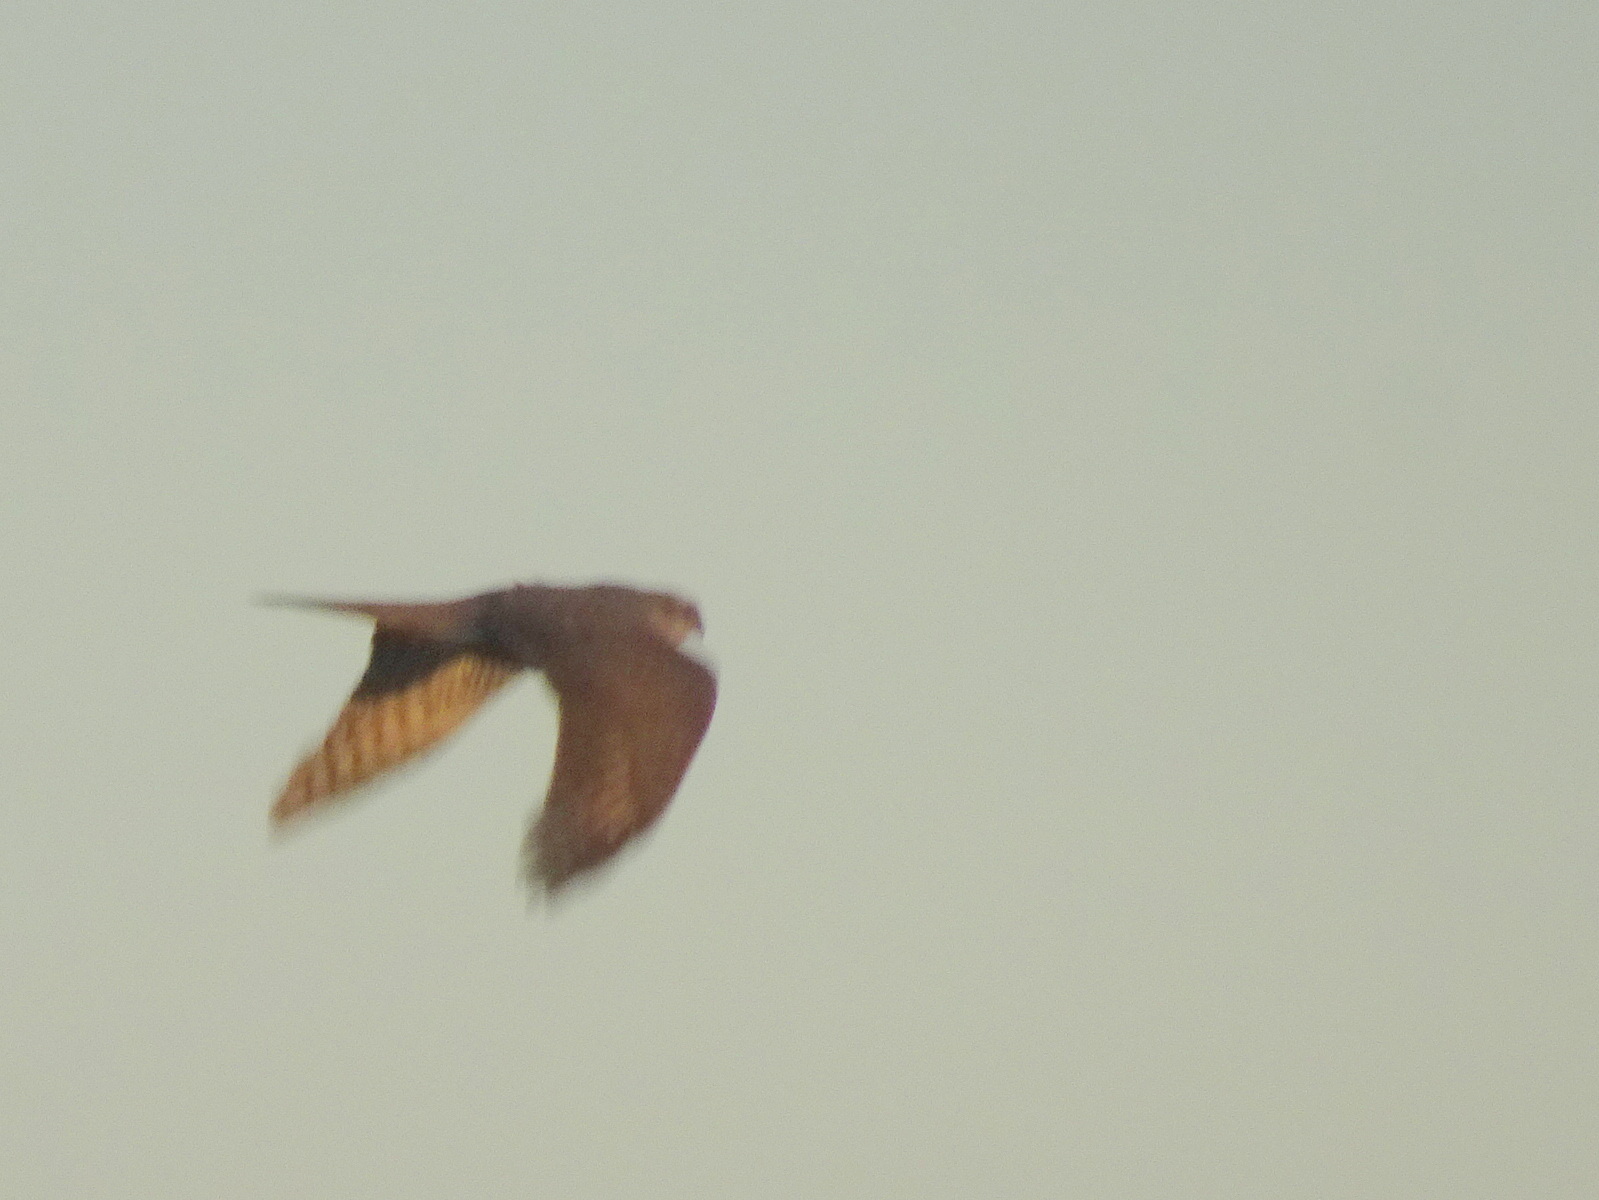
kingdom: Animalia
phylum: Chordata
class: Aves
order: Accipitriformes
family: Accipitridae
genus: Accipiter
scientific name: Accipiter nisus
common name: Eurasian sparrowhawk
